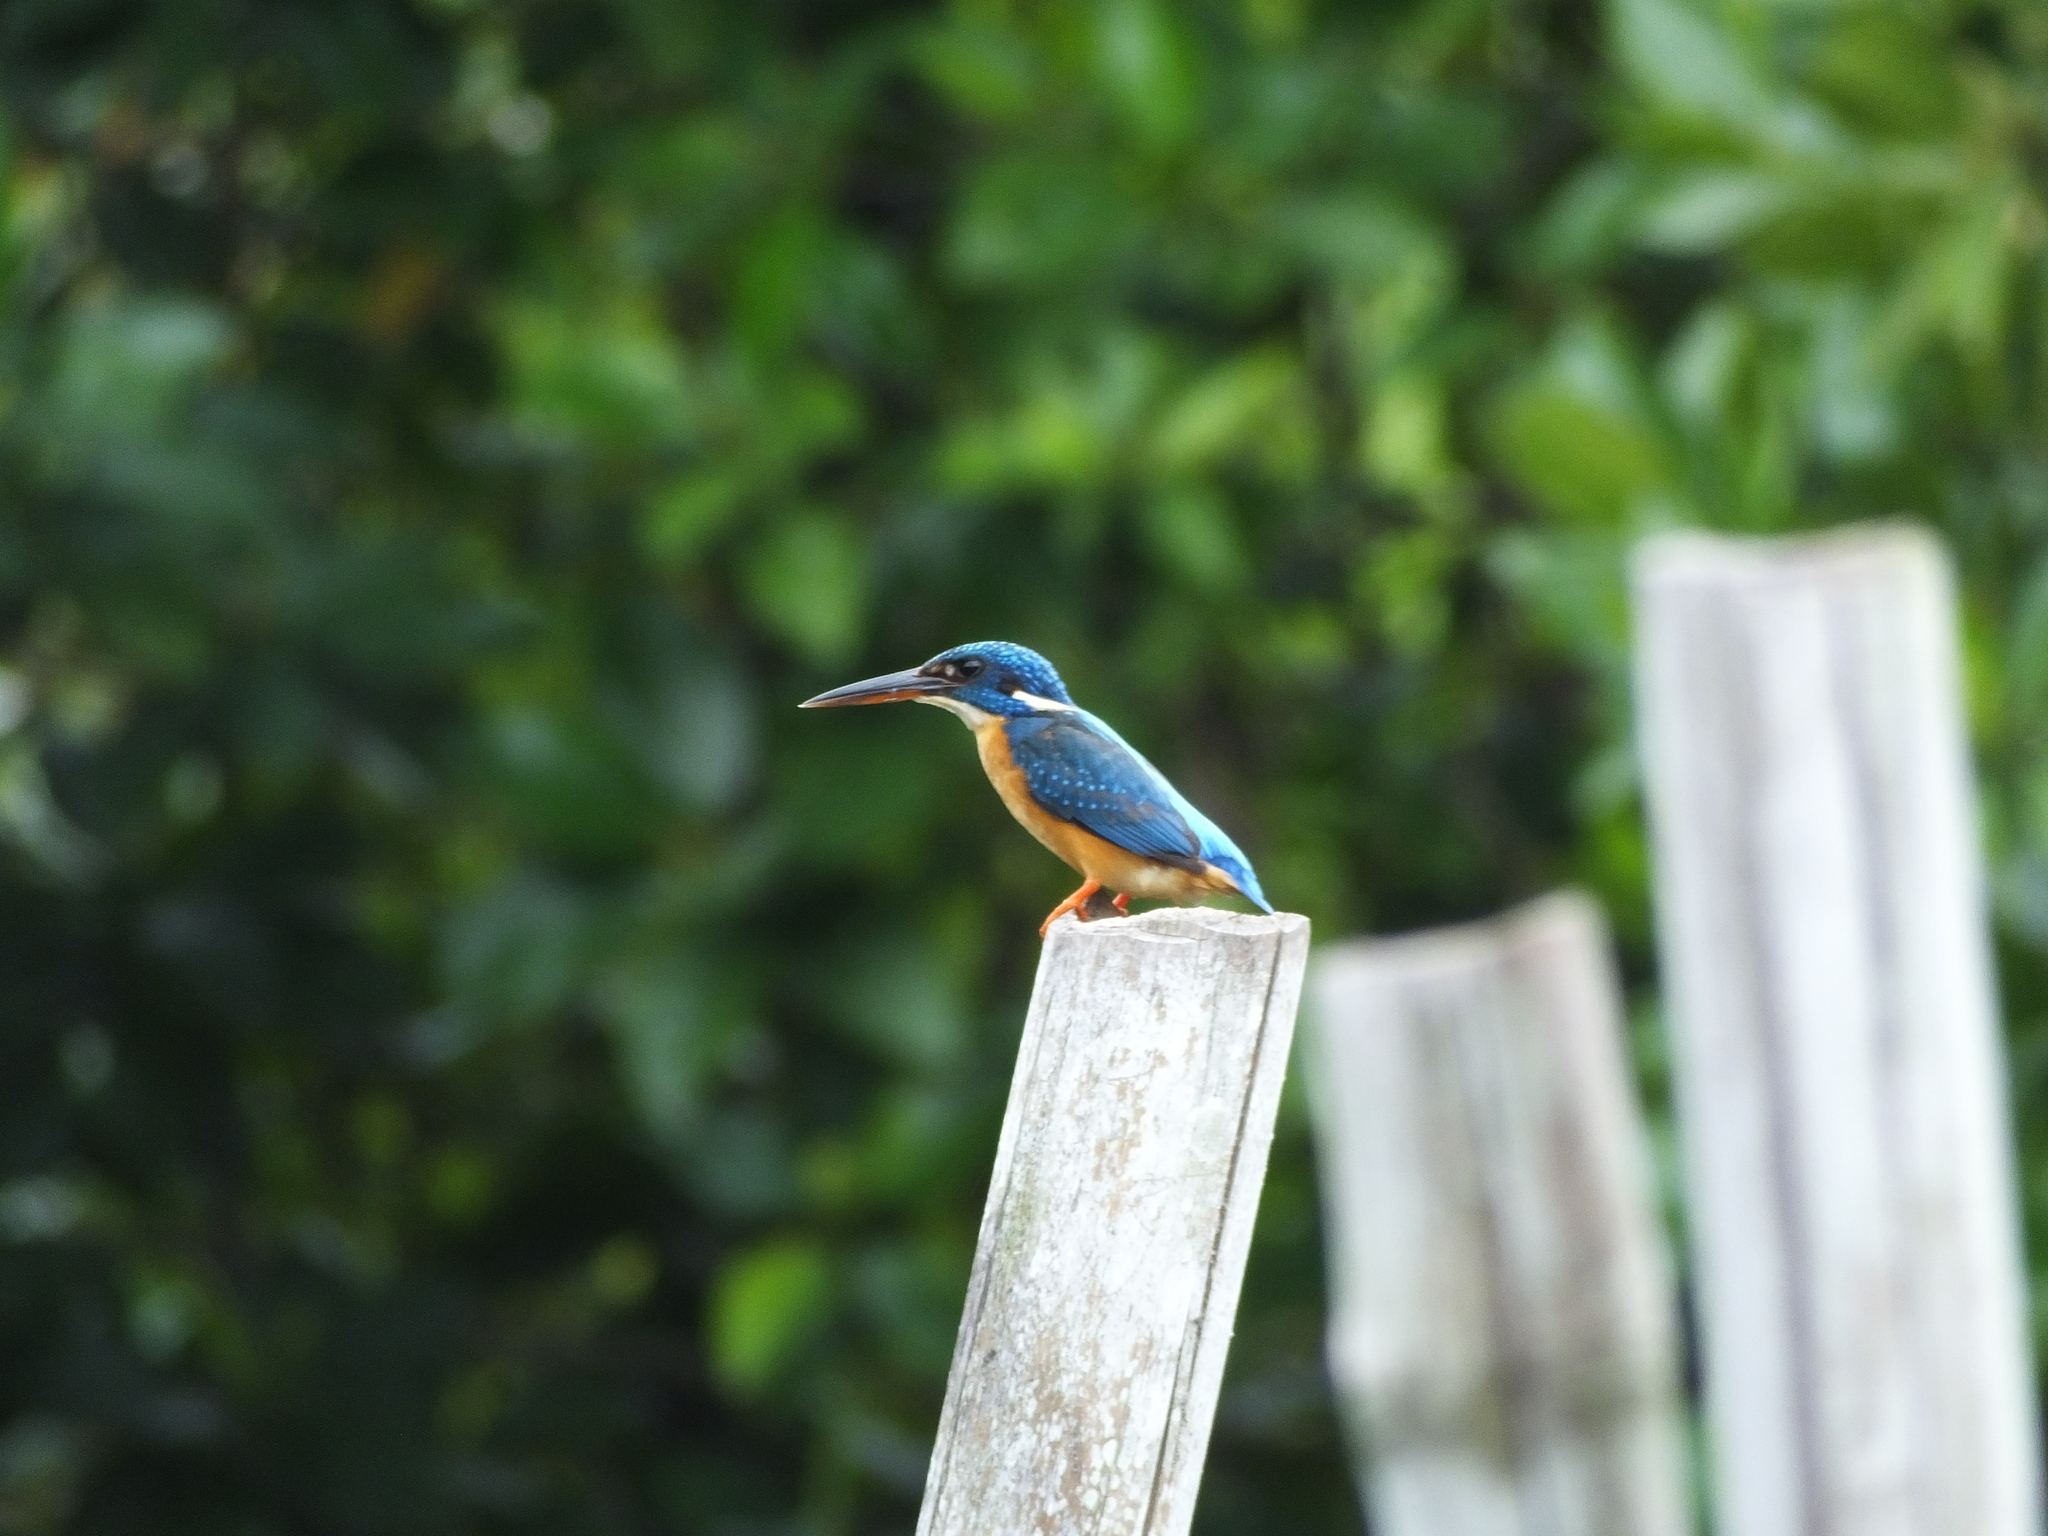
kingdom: Animalia
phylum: Chordata
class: Aves
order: Coraciiformes
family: Alcedinidae
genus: Alcedo
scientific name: Alcedo atthis
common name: Common kingfisher
